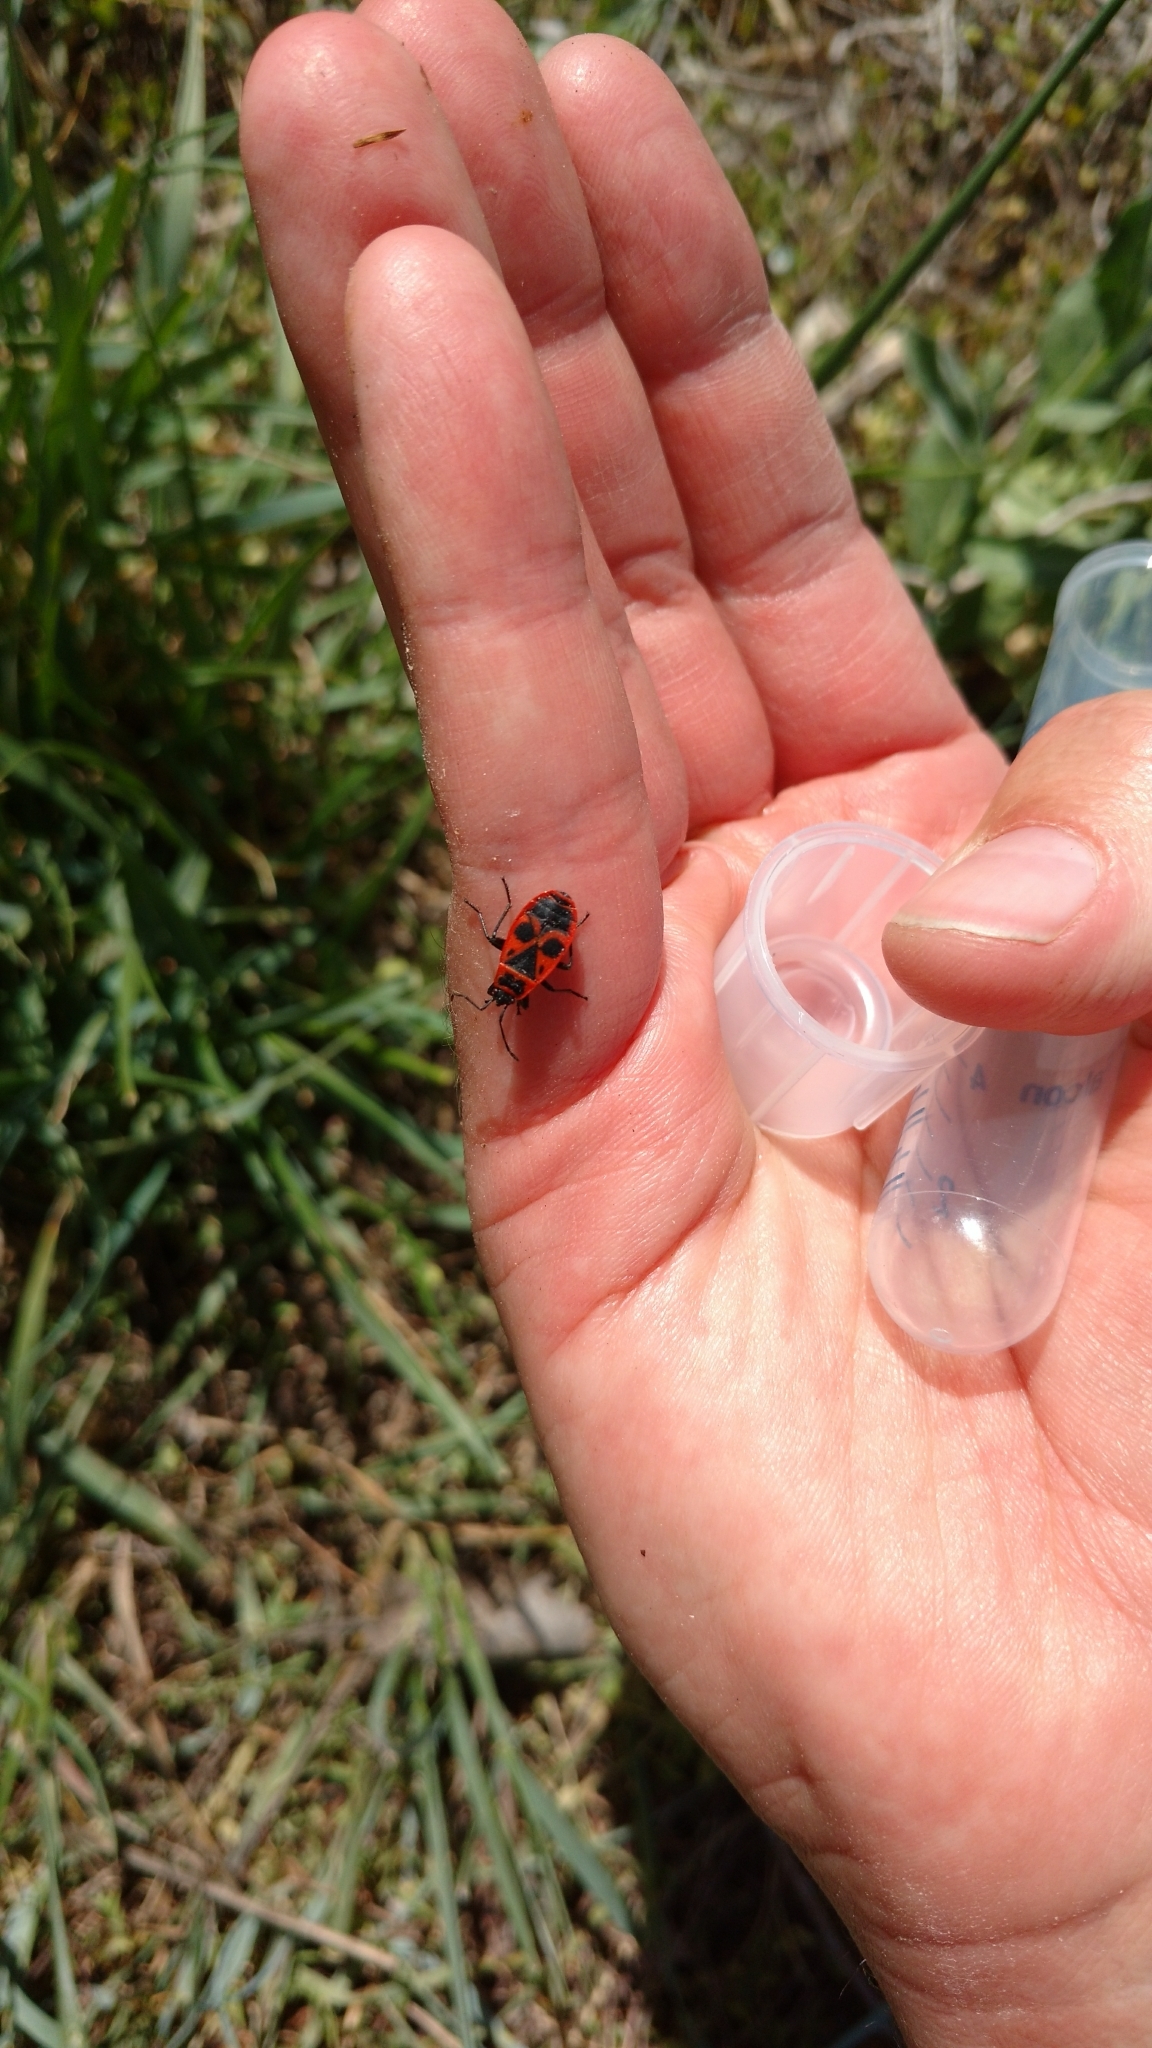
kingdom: Animalia
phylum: Arthropoda
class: Insecta
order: Hemiptera
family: Pyrrhocoridae
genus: Pyrrhocoris
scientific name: Pyrrhocoris apterus
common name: Firebug
